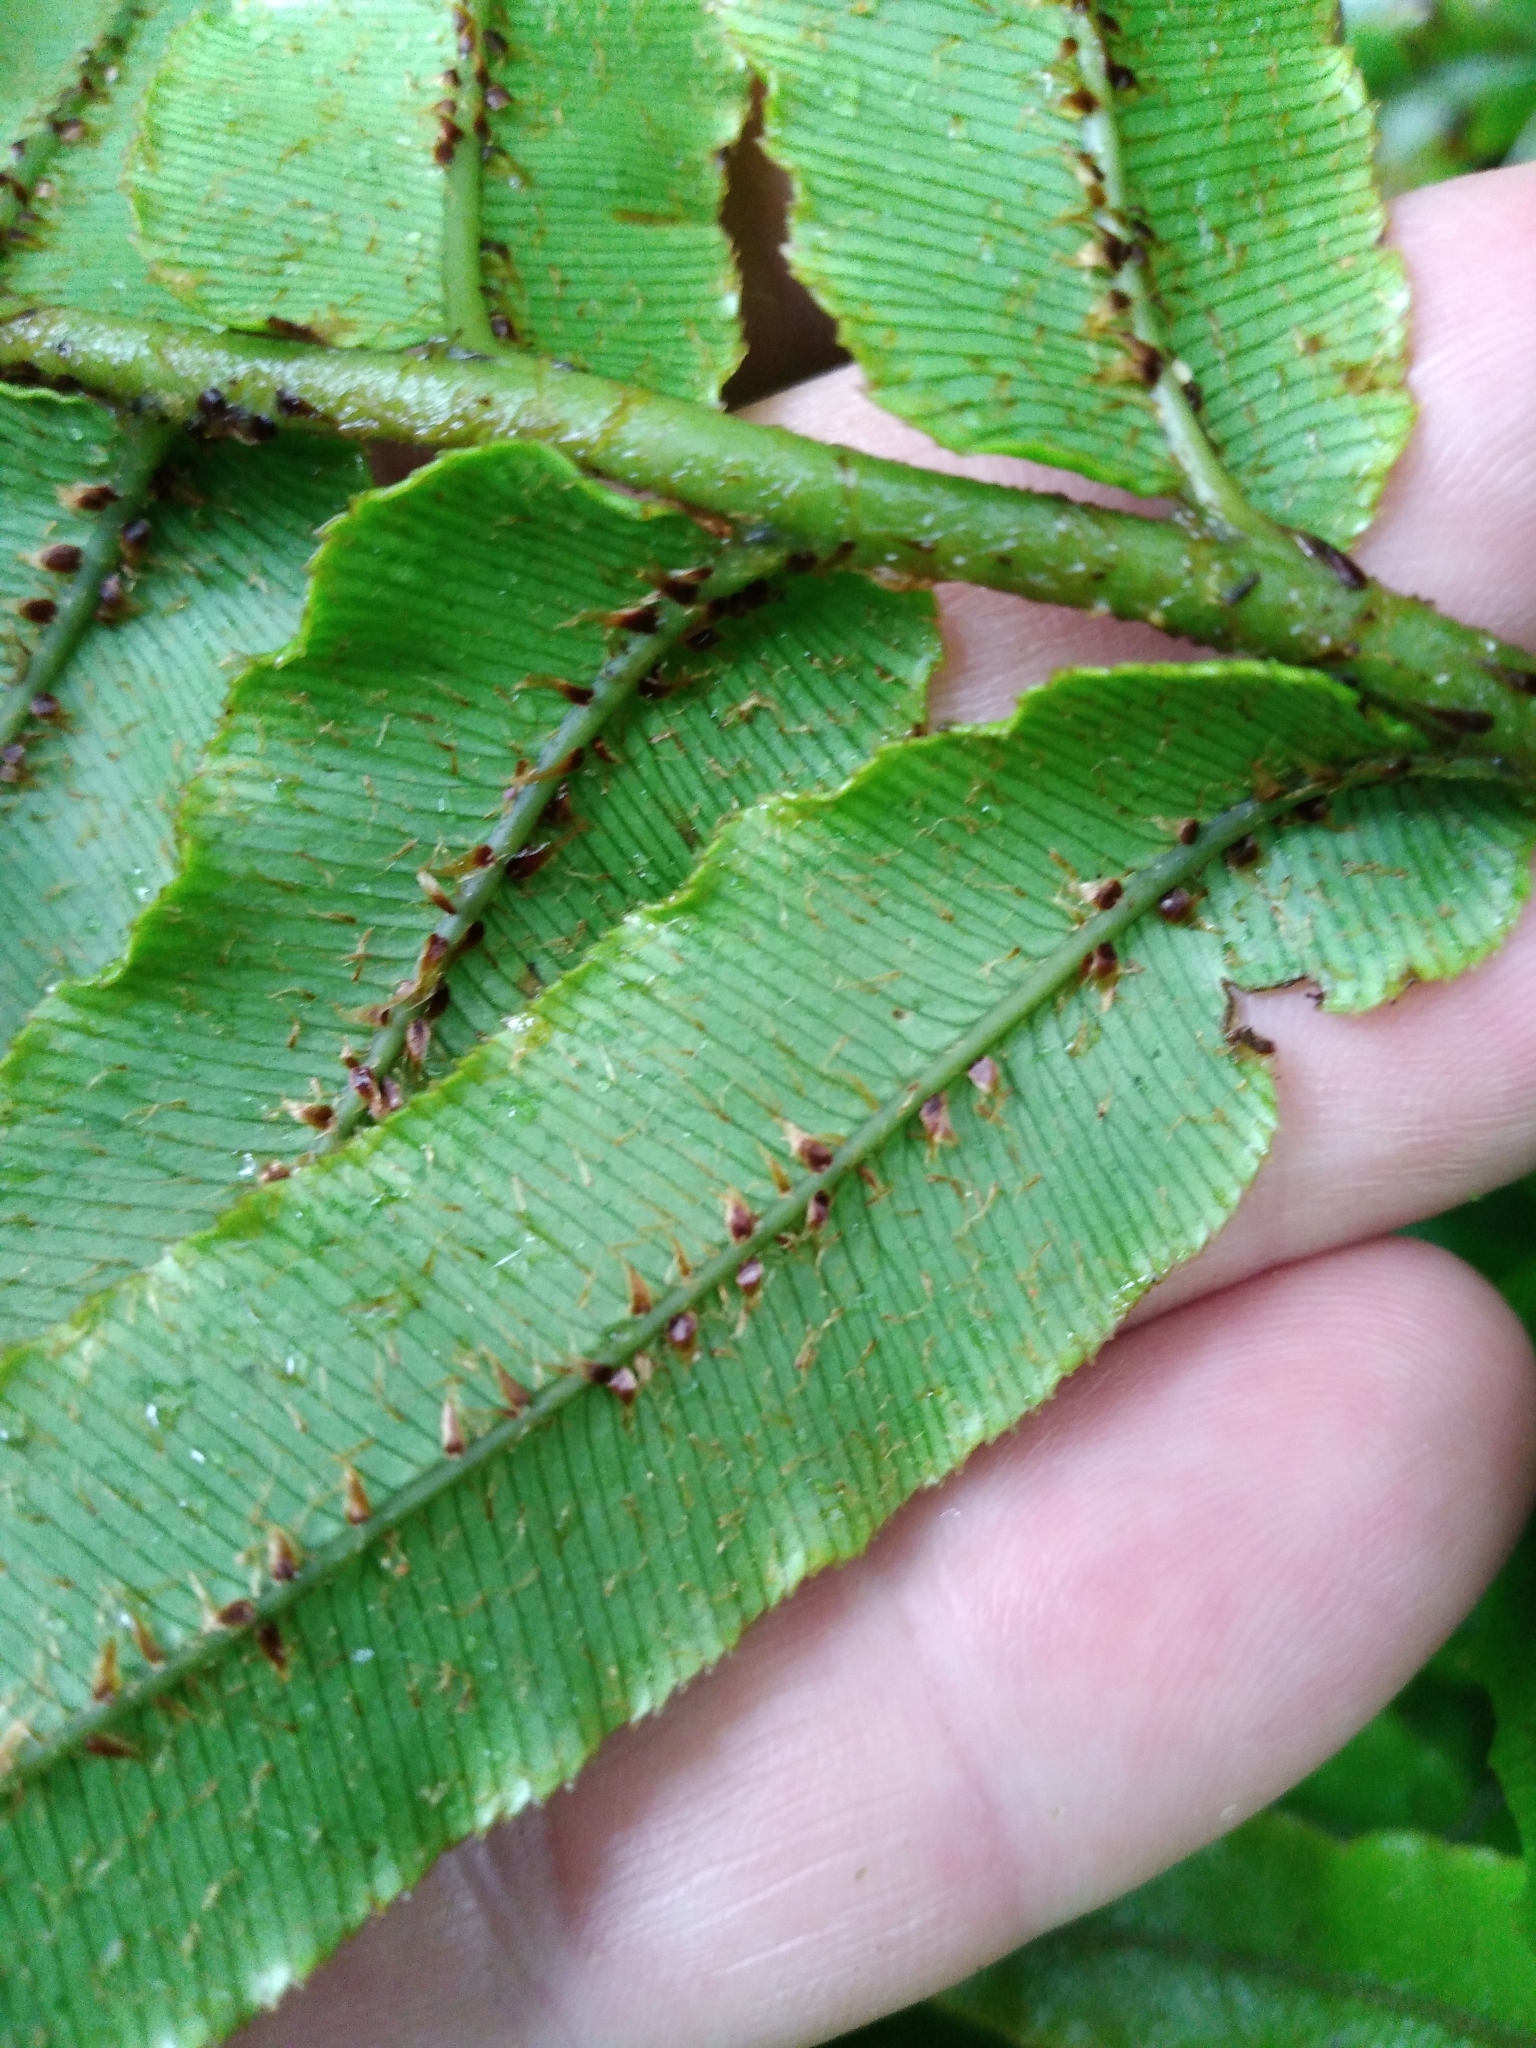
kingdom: Plantae
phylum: Tracheophyta
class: Polypodiopsida
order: Polypodiales
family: Blechnaceae
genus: Parablechnum
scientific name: Parablechnum procerum
